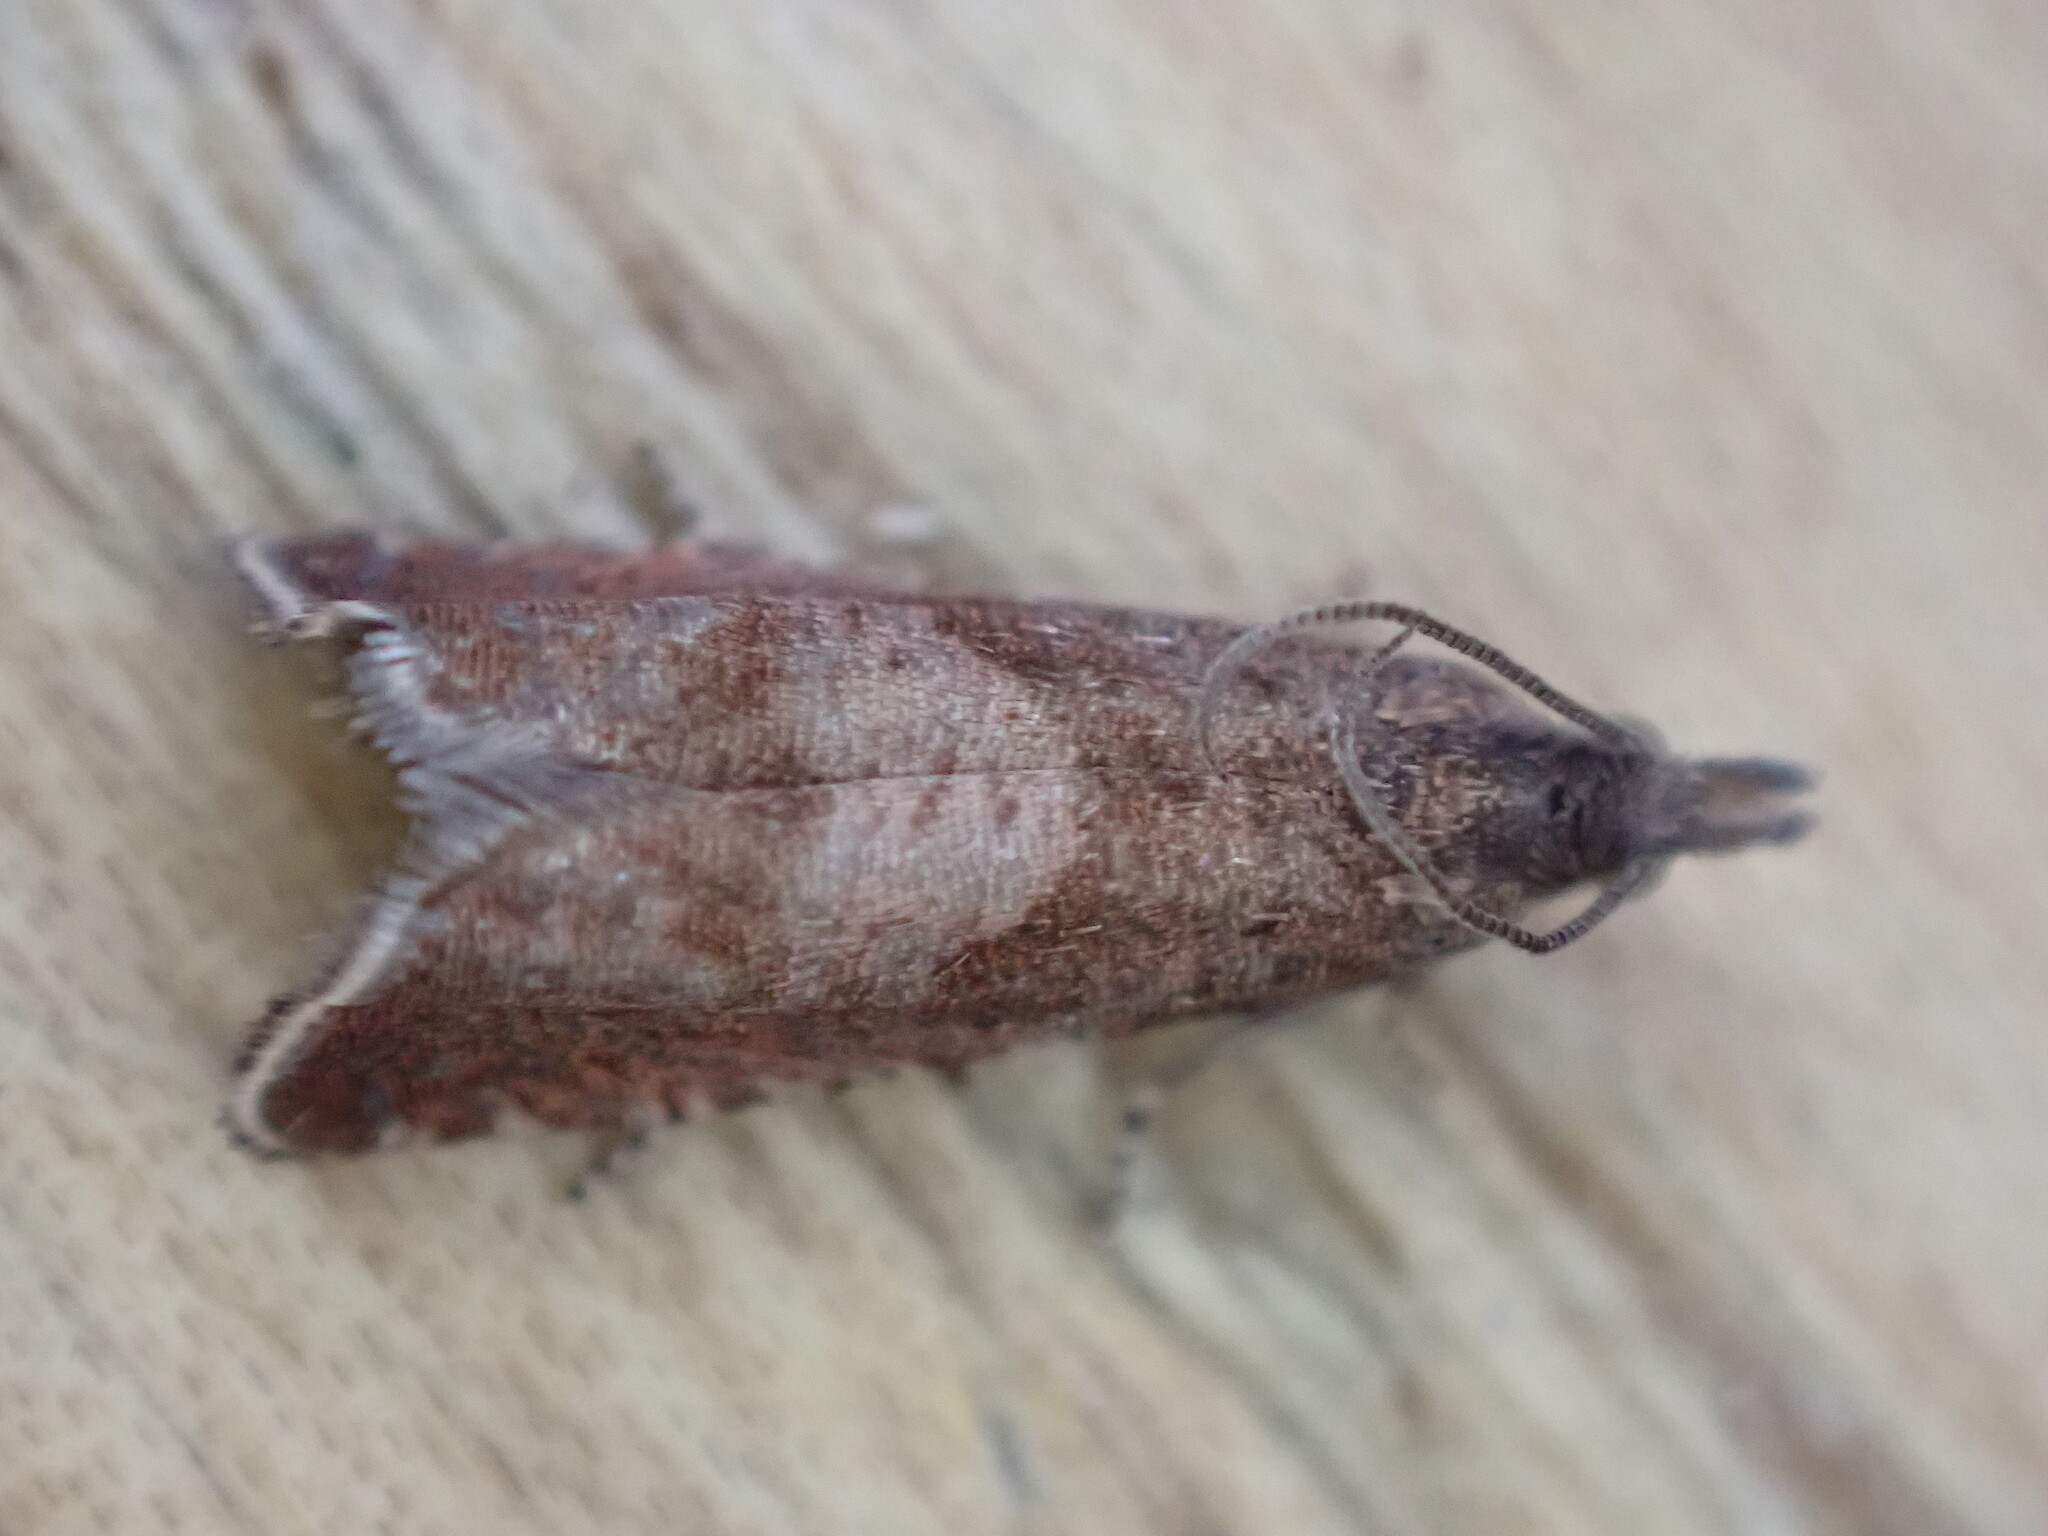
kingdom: Animalia
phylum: Arthropoda
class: Insecta
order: Lepidoptera
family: Tortricidae
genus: Dichrorampha
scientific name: Dichrorampha acuminatana
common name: Sharp-winged drill
